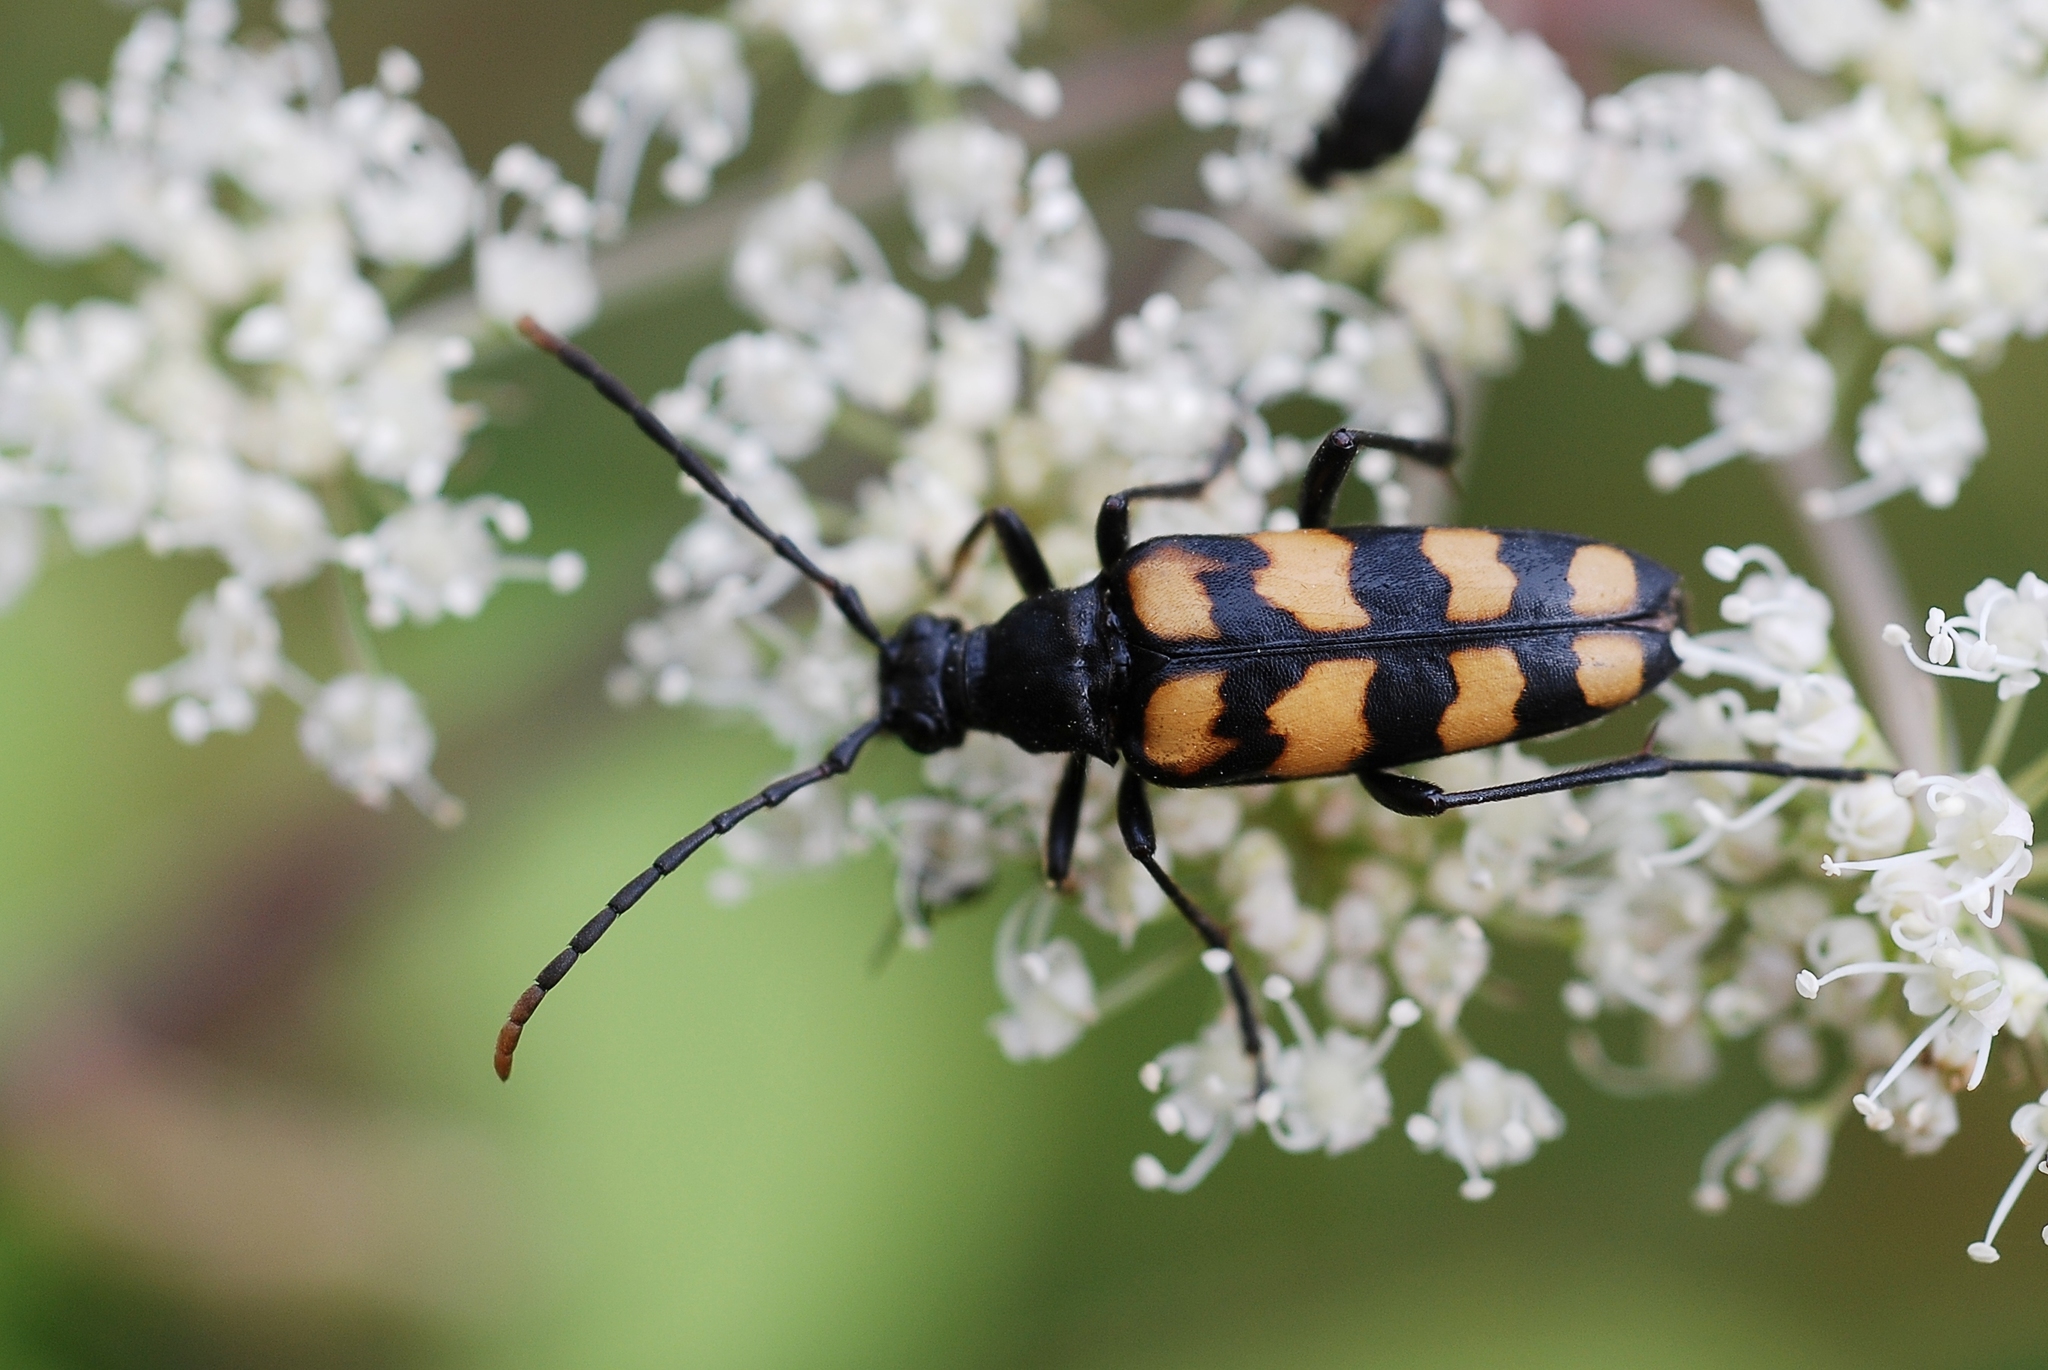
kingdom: Animalia
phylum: Arthropoda
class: Insecta
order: Coleoptera
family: Cerambycidae
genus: Leptura
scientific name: Leptura quadrifasciata
